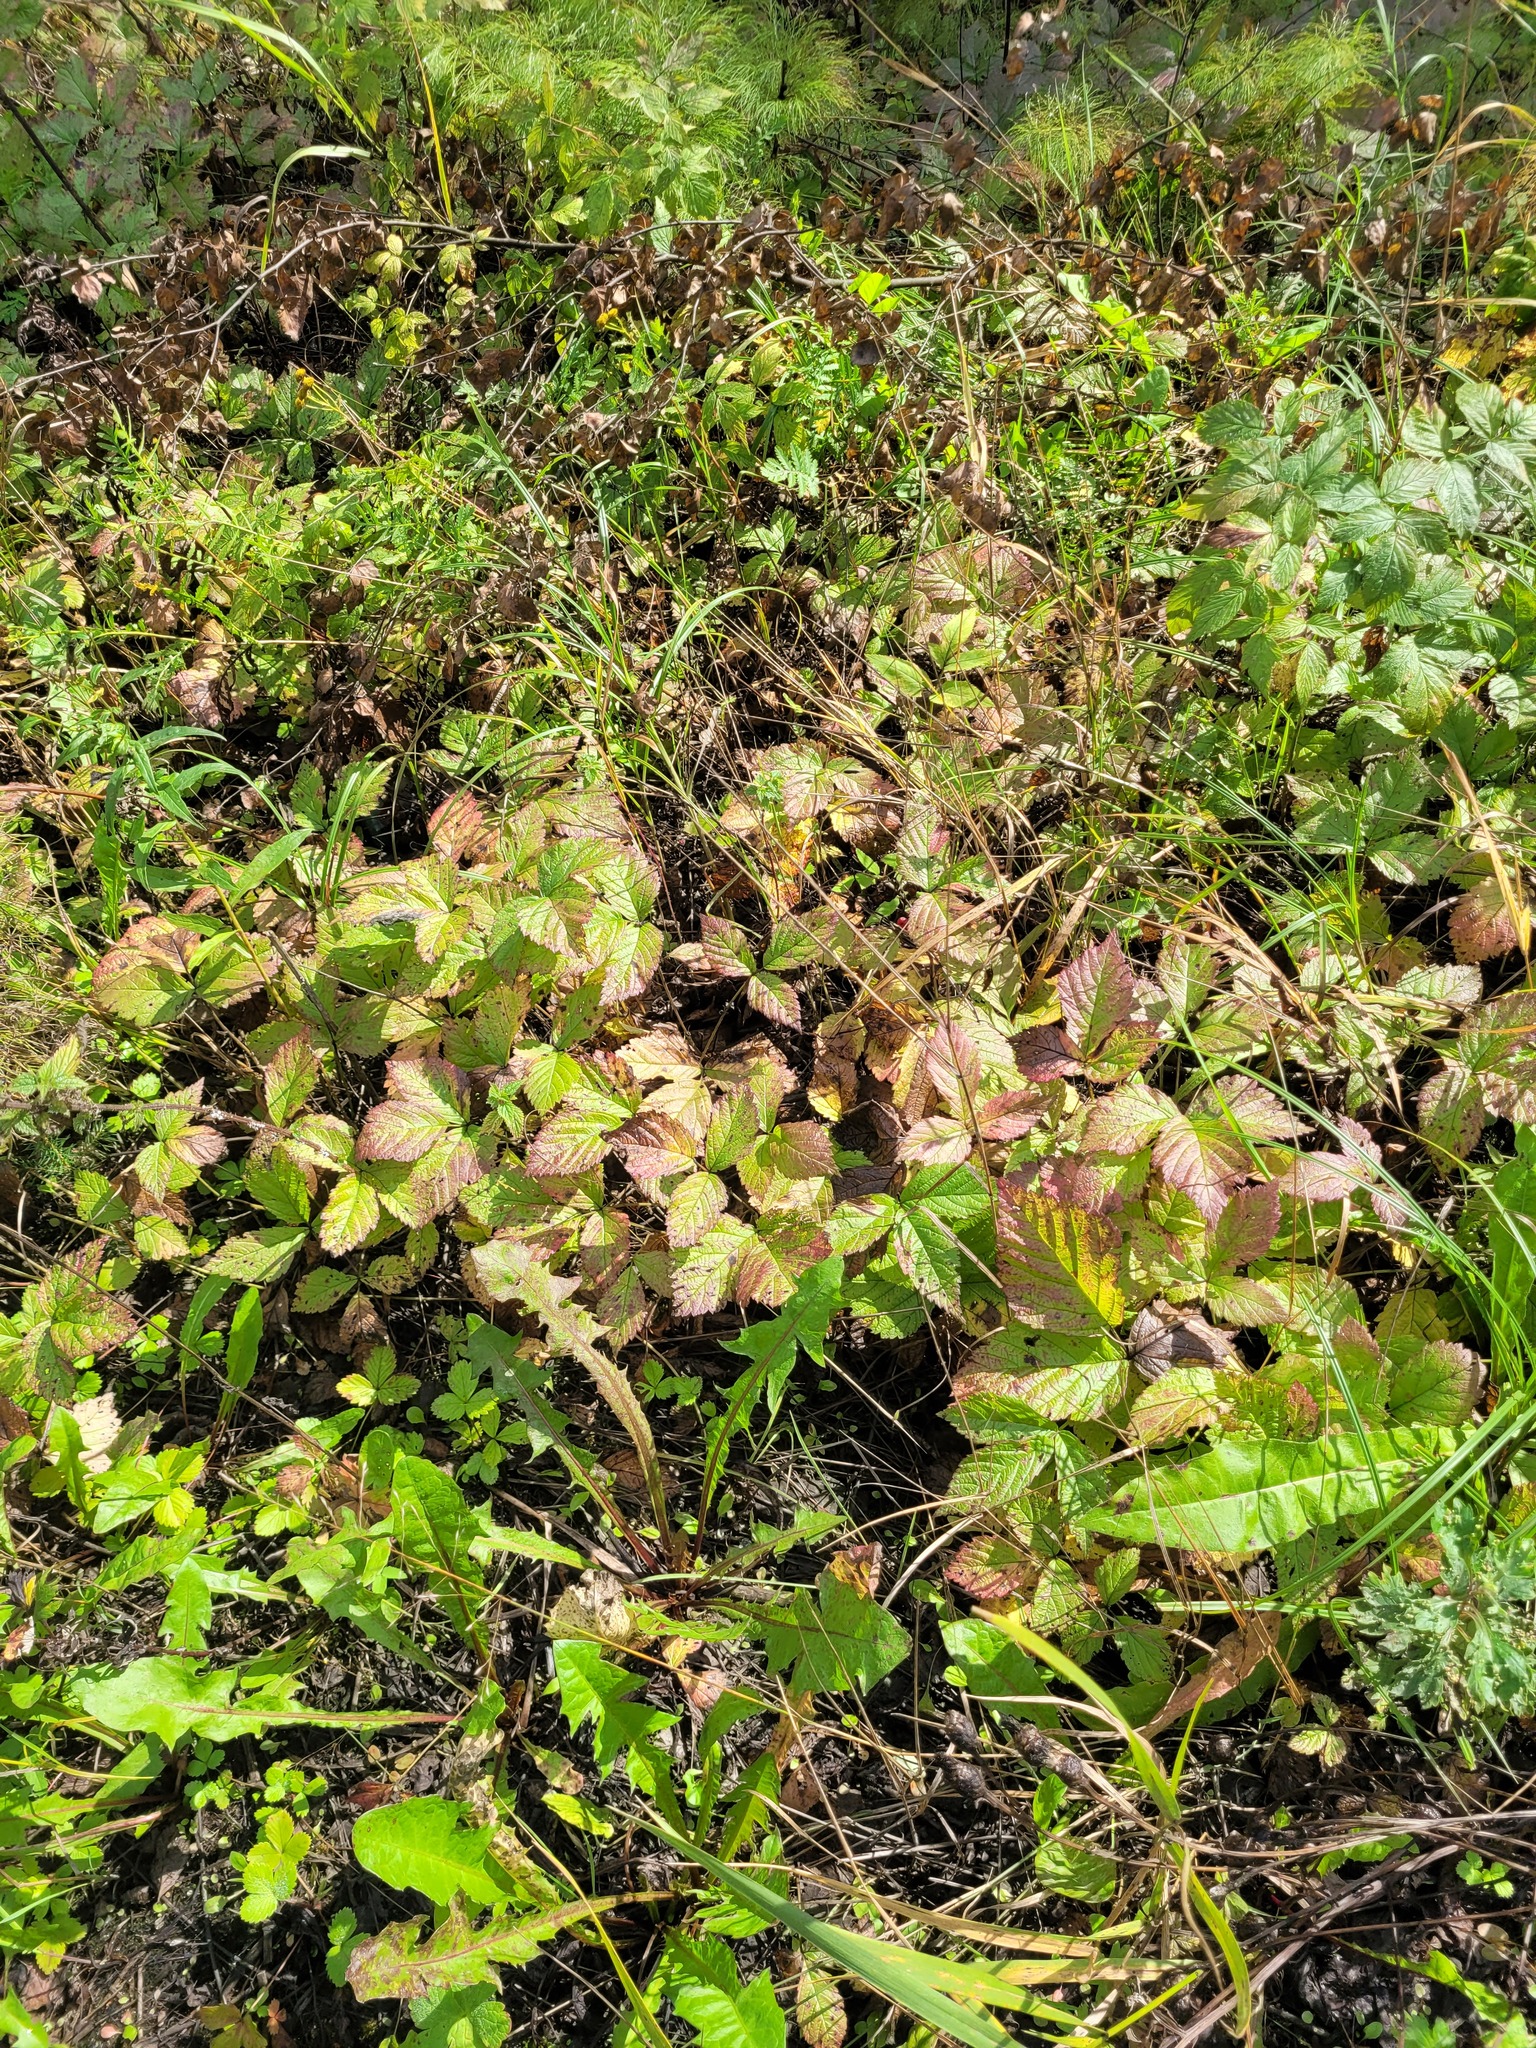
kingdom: Plantae
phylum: Tracheophyta
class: Magnoliopsida
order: Rosales
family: Rosaceae
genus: Rubus
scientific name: Rubus saxatilis
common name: Stone bramble
